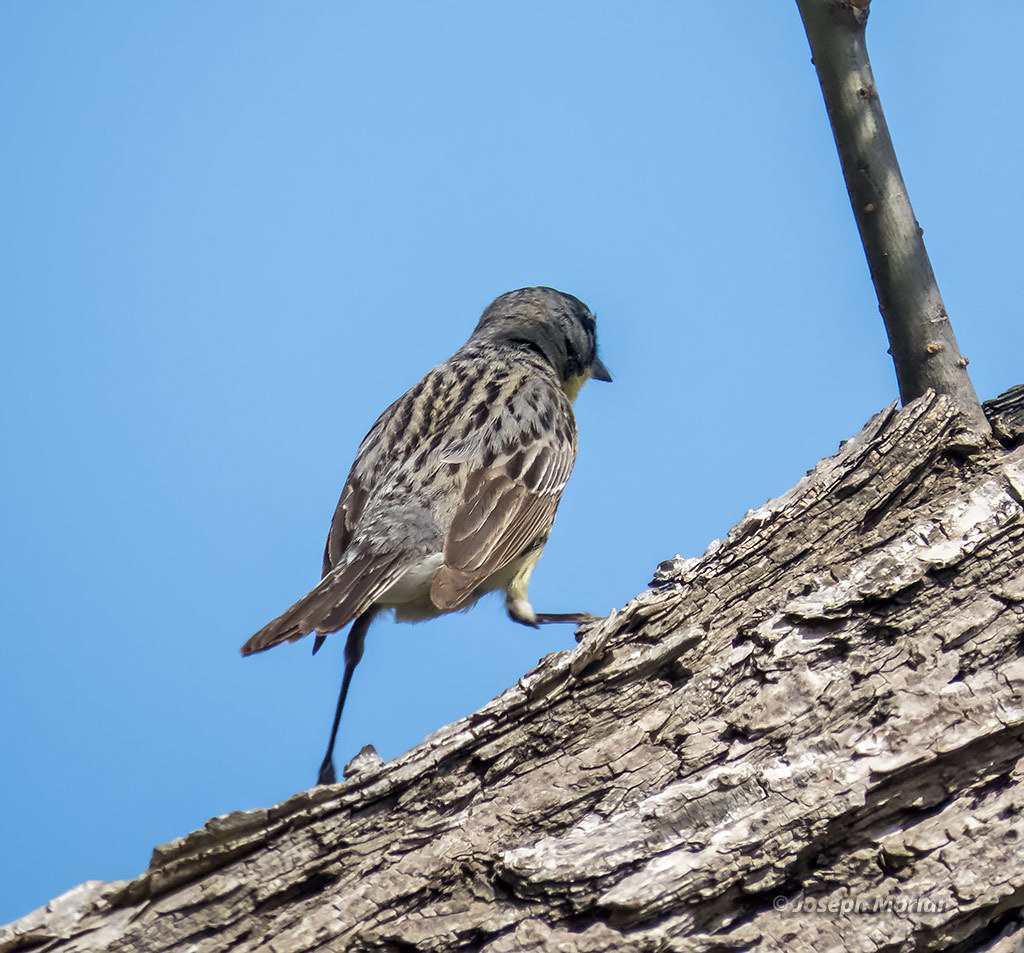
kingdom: Animalia
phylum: Chordata
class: Aves
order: Passeriformes
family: Parulidae
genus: Setophaga
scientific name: Setophaga kirtlandii
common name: Kirtland's warbler
